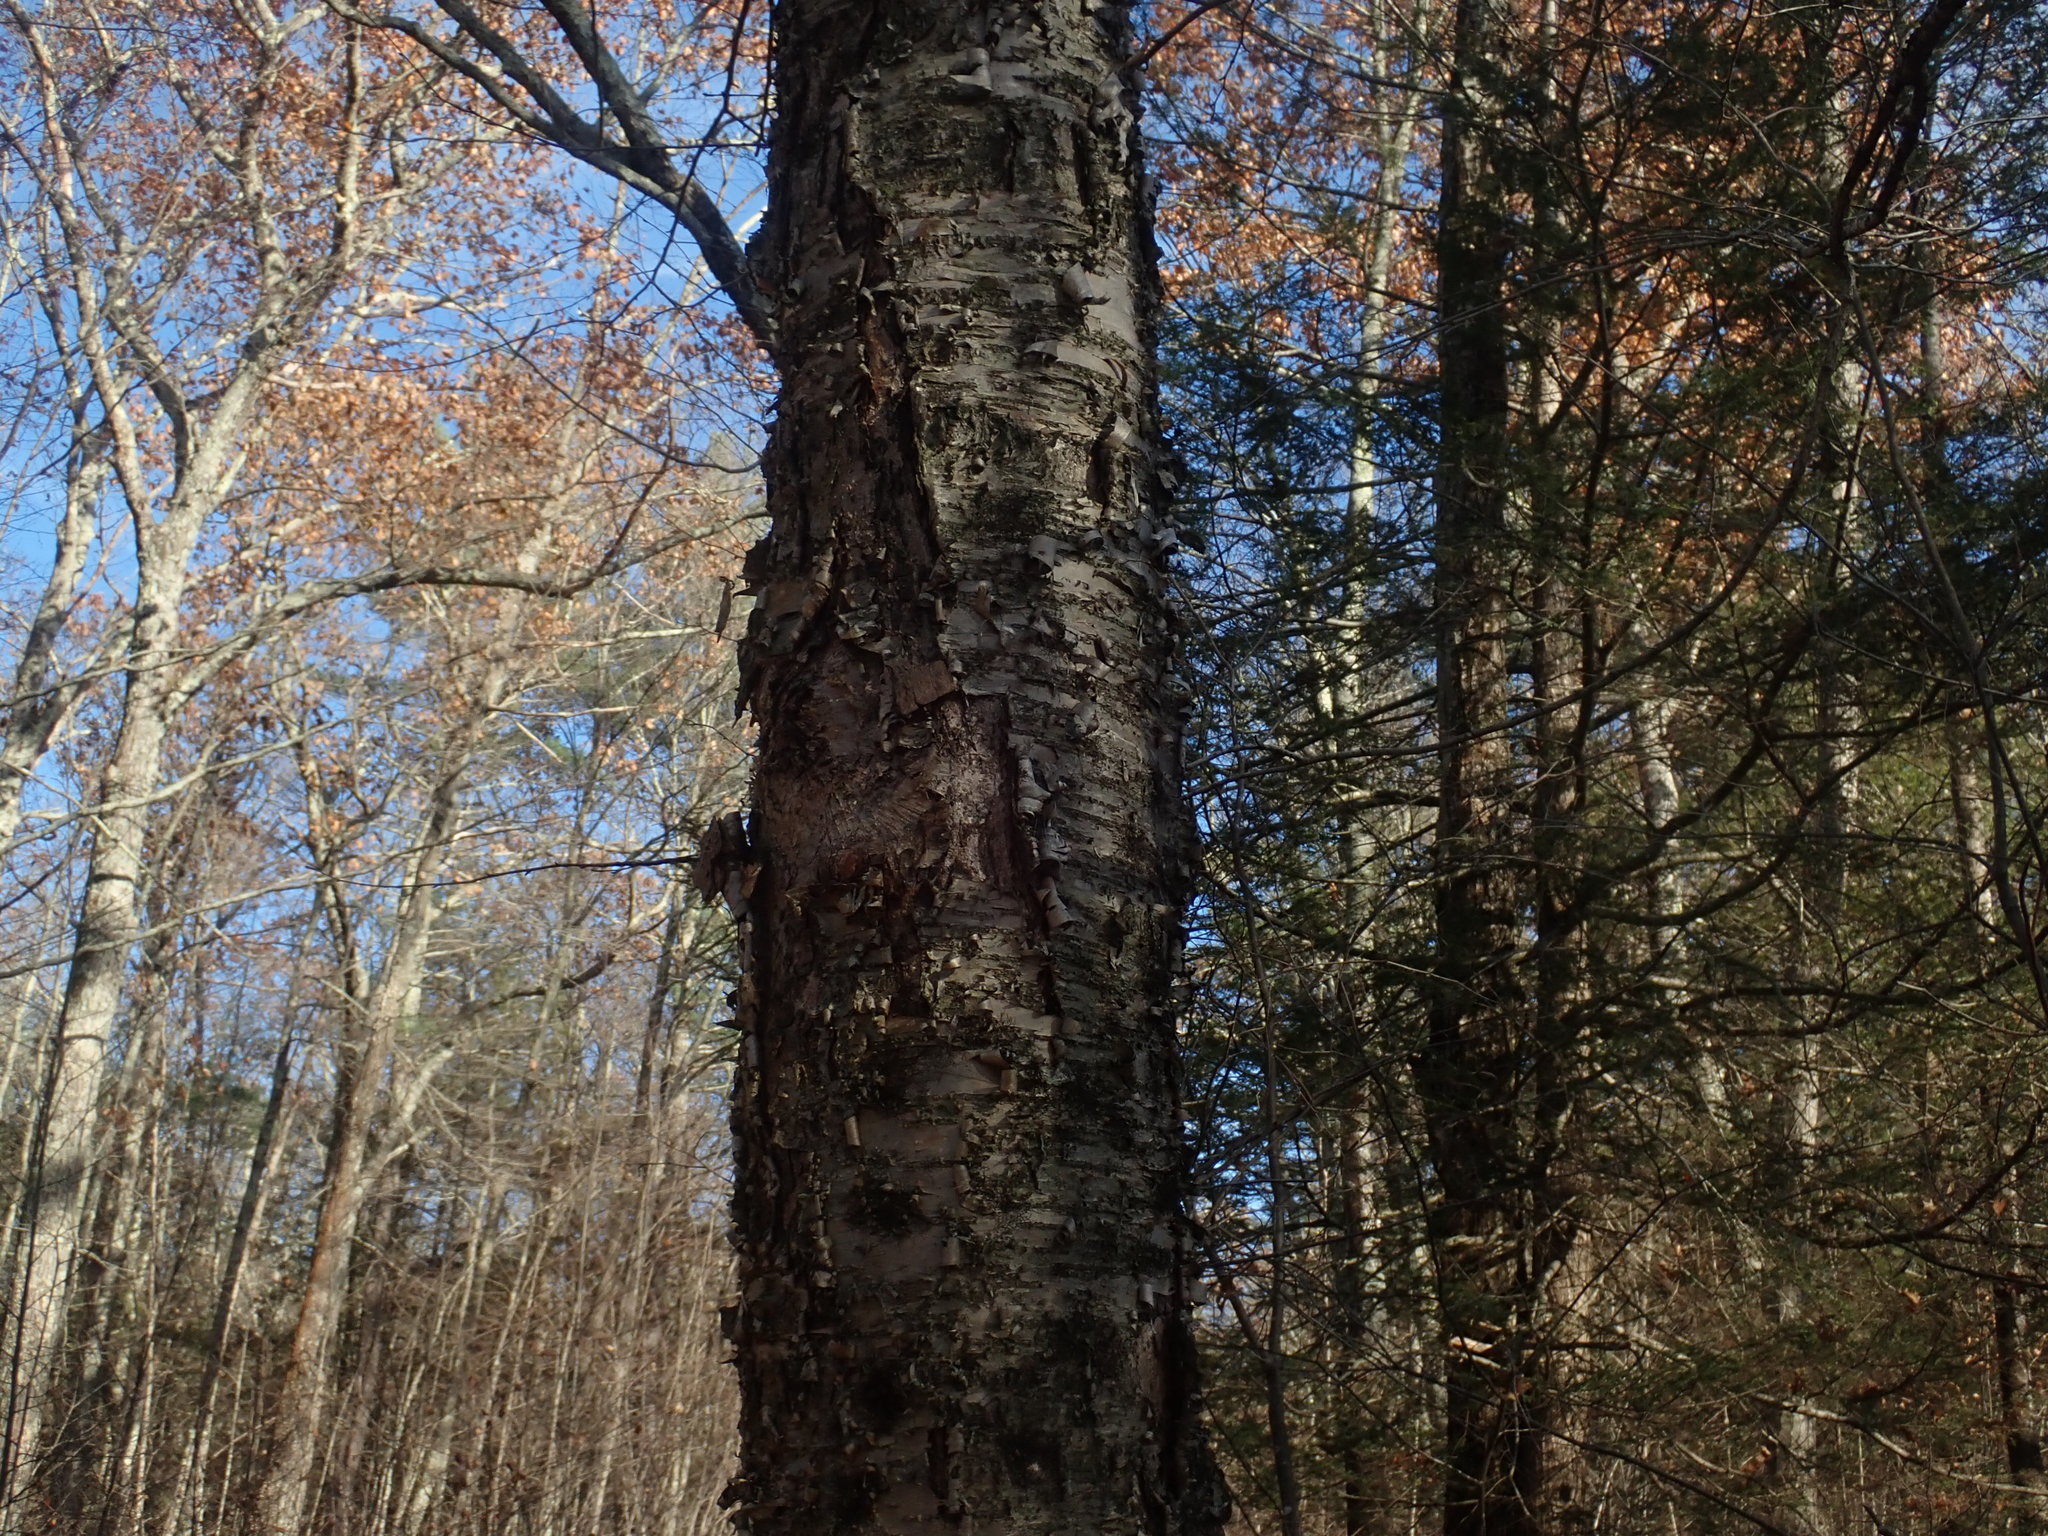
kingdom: Plantae
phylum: Tracheophyta
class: Magnoliopsida
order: Fagales
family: Betulaceae
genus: Betula
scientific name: Betula alleghaniensis
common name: Yellow birch
